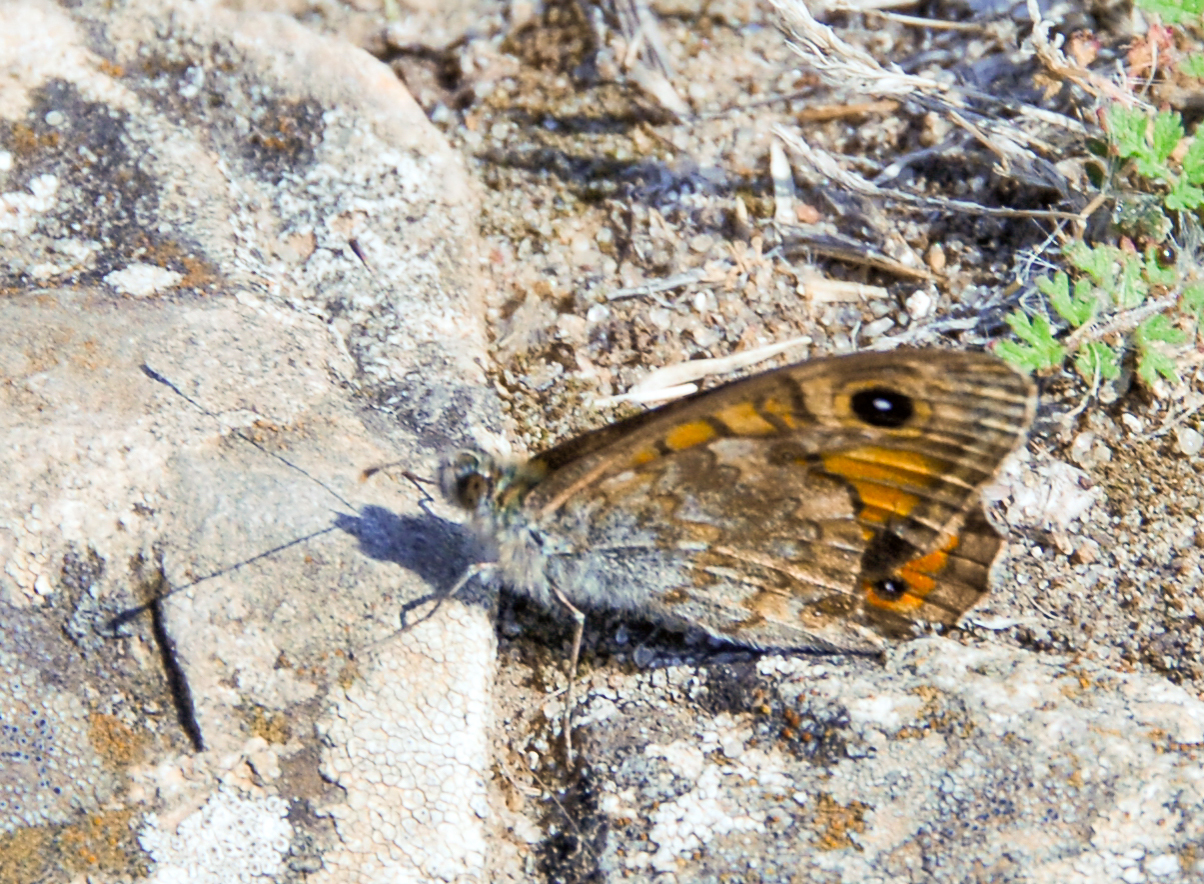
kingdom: Animalia
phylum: Arthropoda
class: Insecta
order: Lepidoptera
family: Nymphalidae
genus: Pararge
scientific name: Pararge Lasiommata megera
